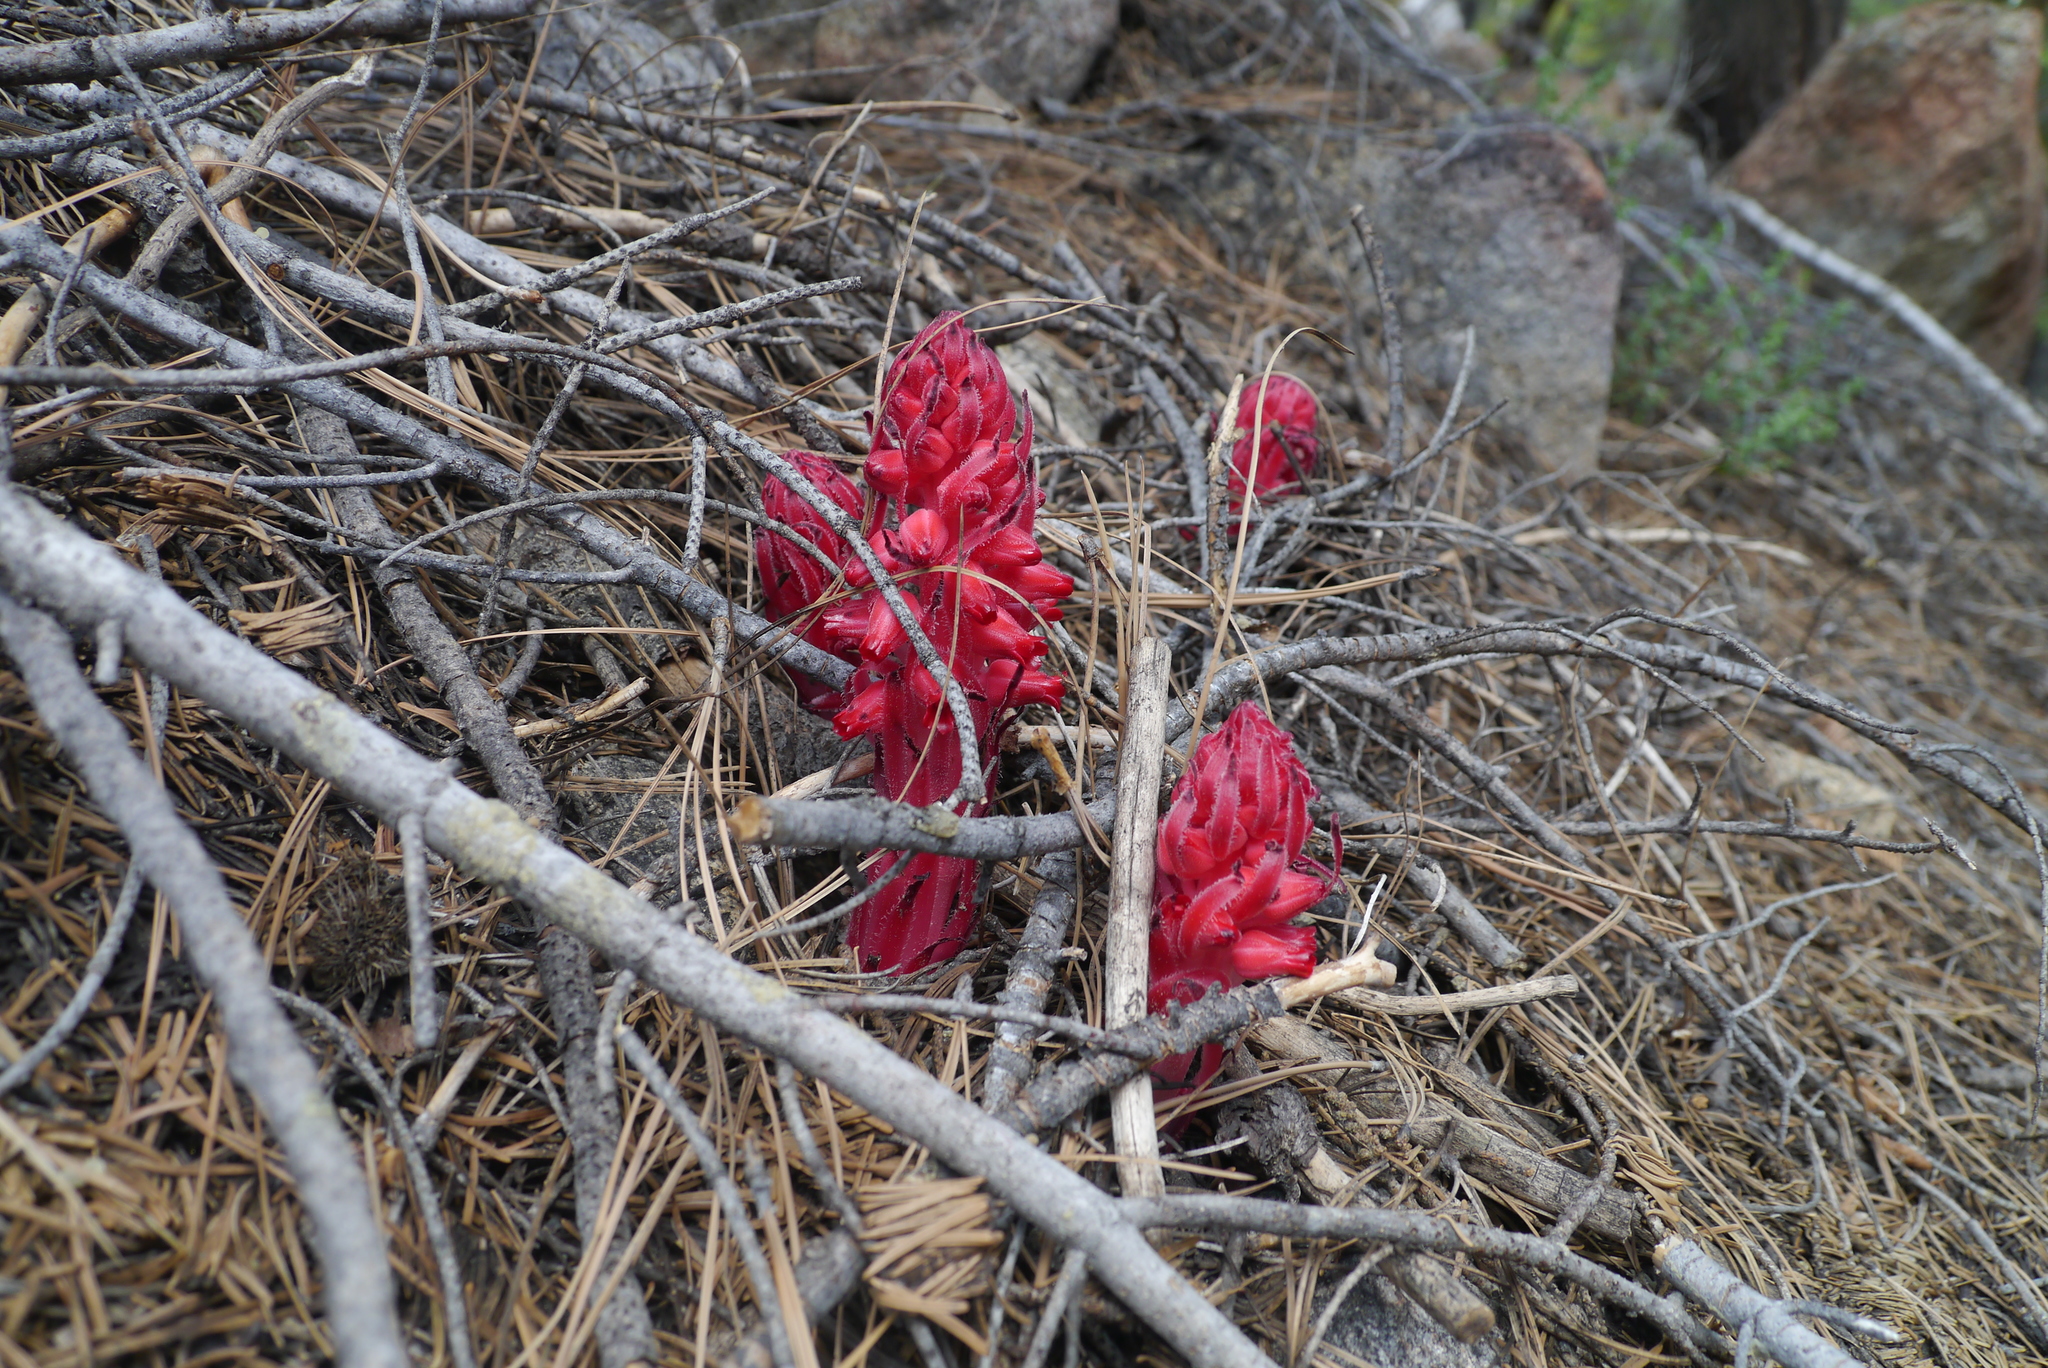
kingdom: Plantae
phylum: Tracheophyta
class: Magnoliopsida
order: Ericales
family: Ericaceae
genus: Sarcodes
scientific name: Sarcodes sanguinea
